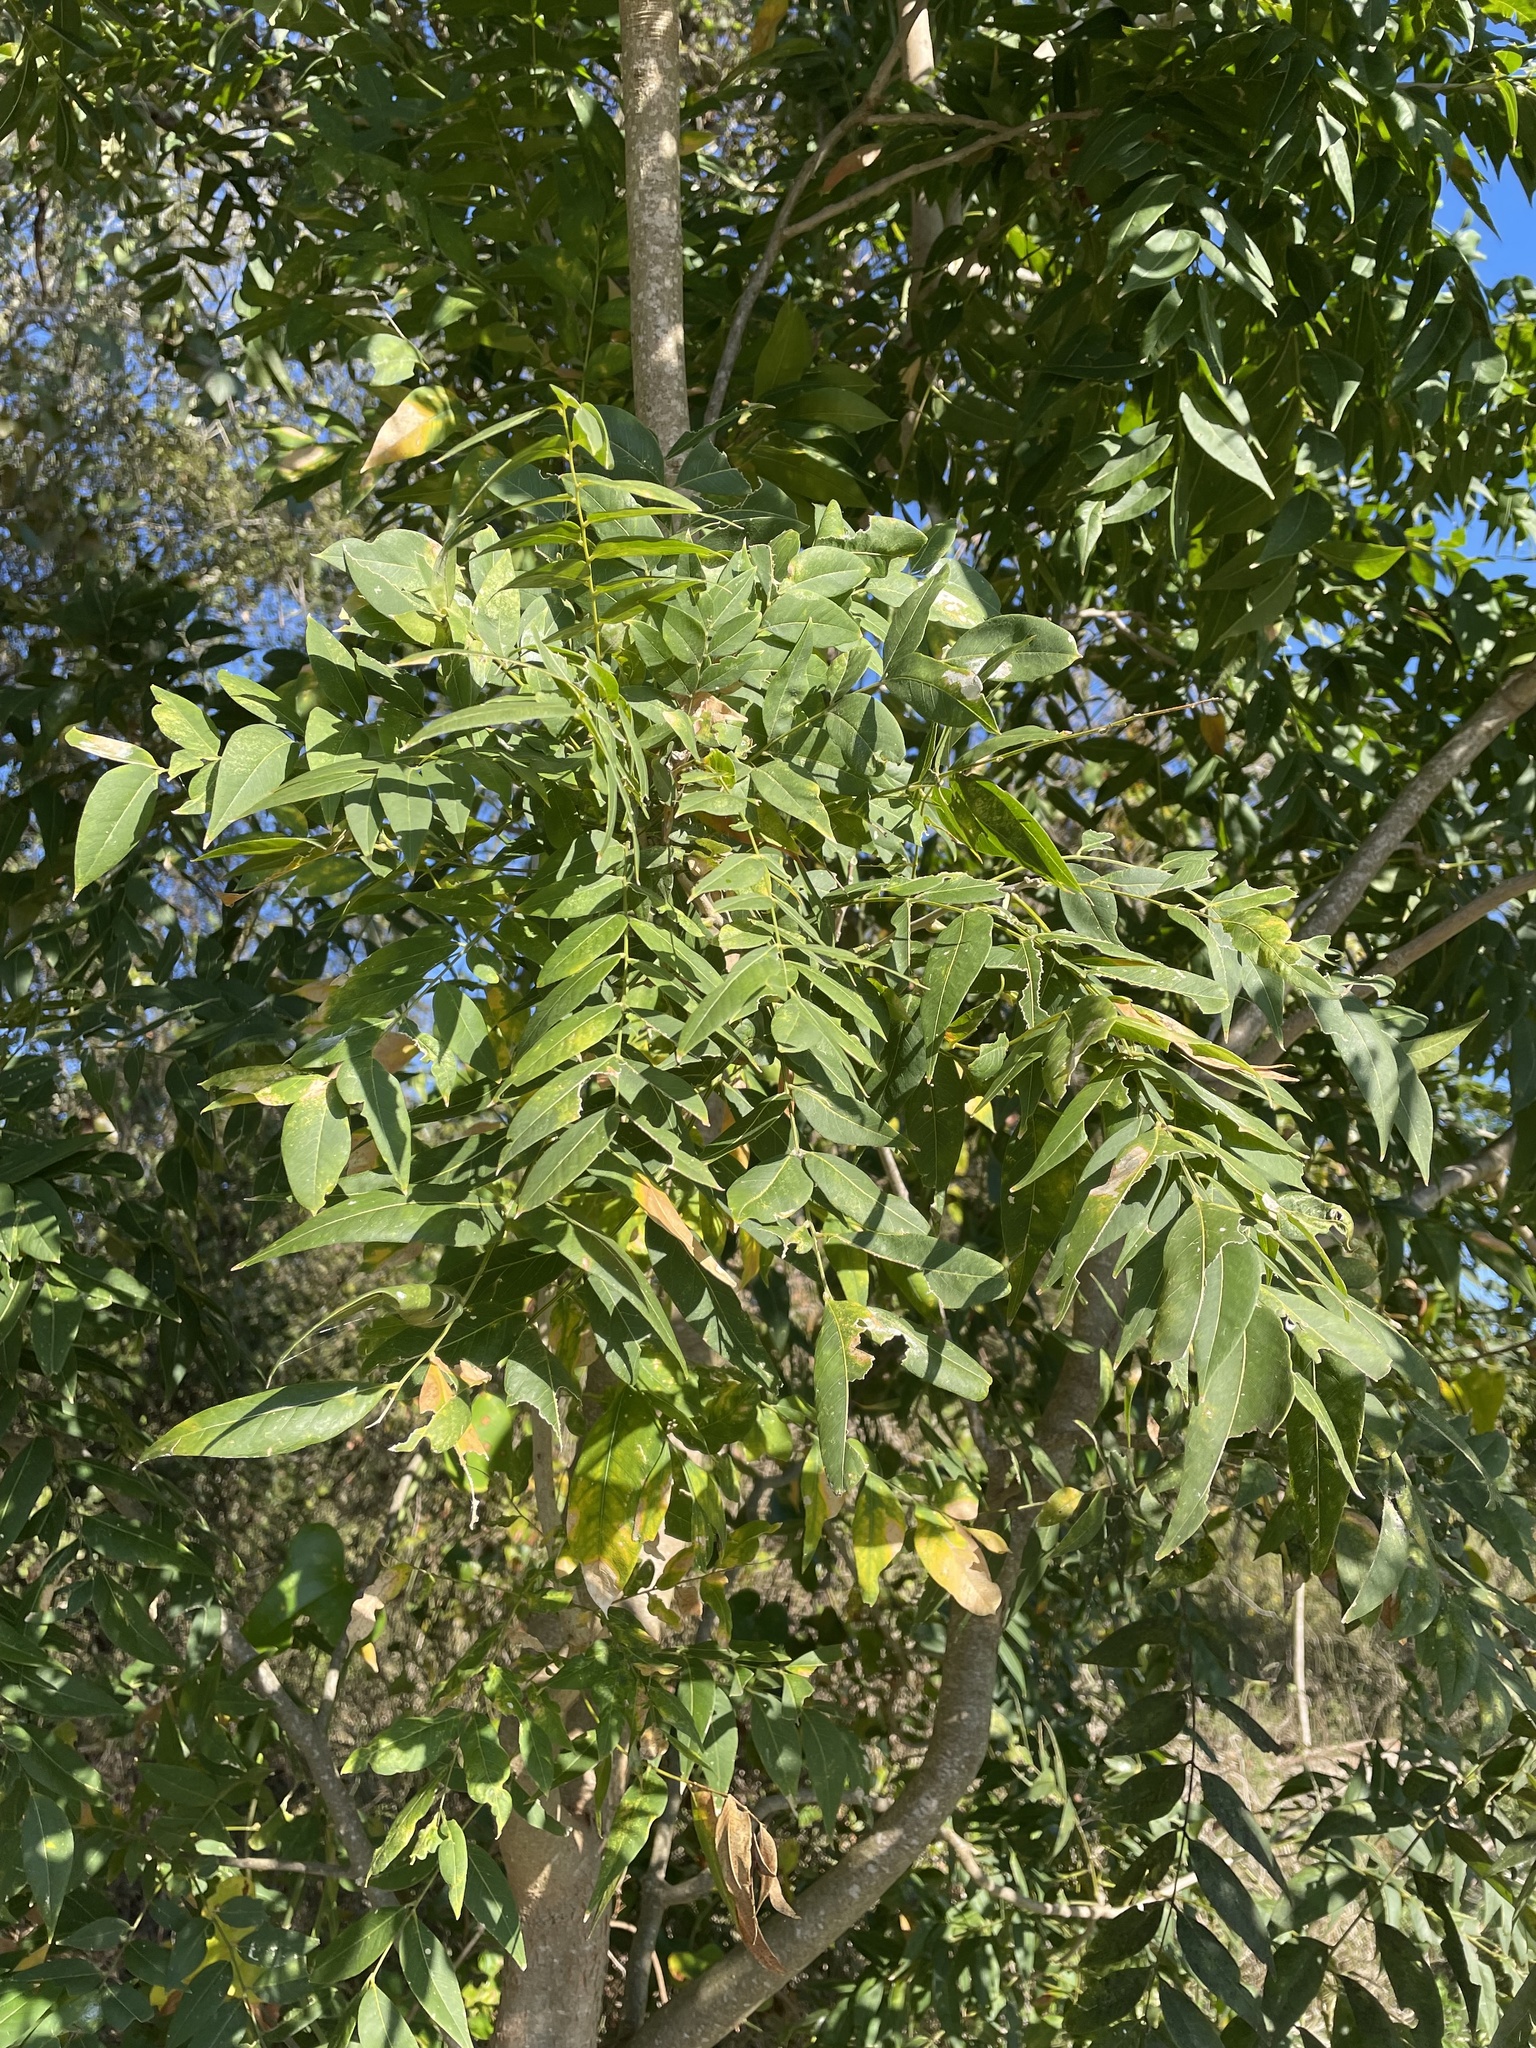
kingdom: Plantae
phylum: Tracheophyta
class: Magnoliopsida
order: Sapindales
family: Sapindaceae
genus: Sapindus
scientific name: Sapindus drummondii
